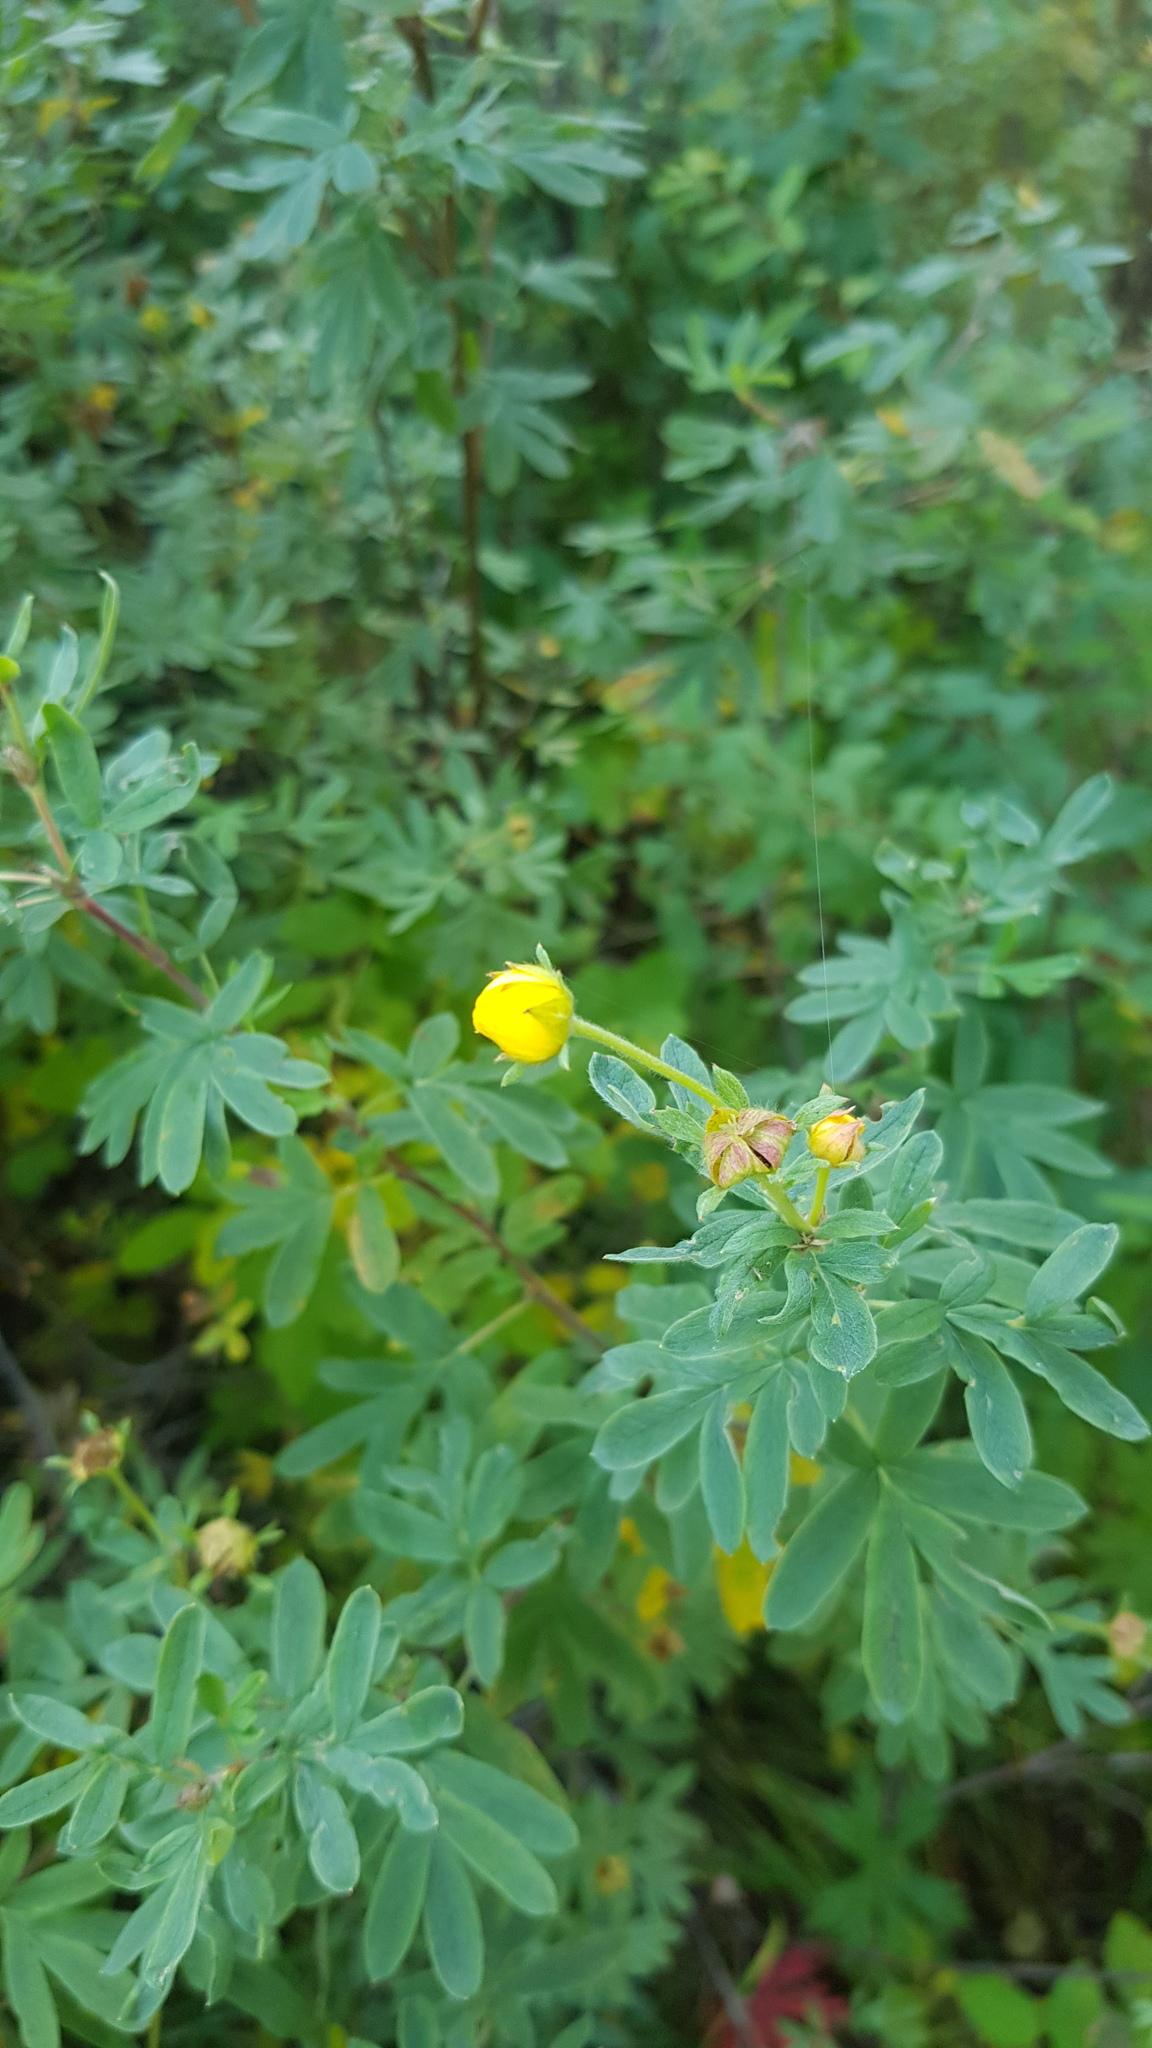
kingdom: Plantae
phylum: Tracheophyta
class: Magnoliopsida
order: Rosales
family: Rosaceae
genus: Dasiphora
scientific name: Dasiphora fruticosa
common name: Shrubby cinquefoil
